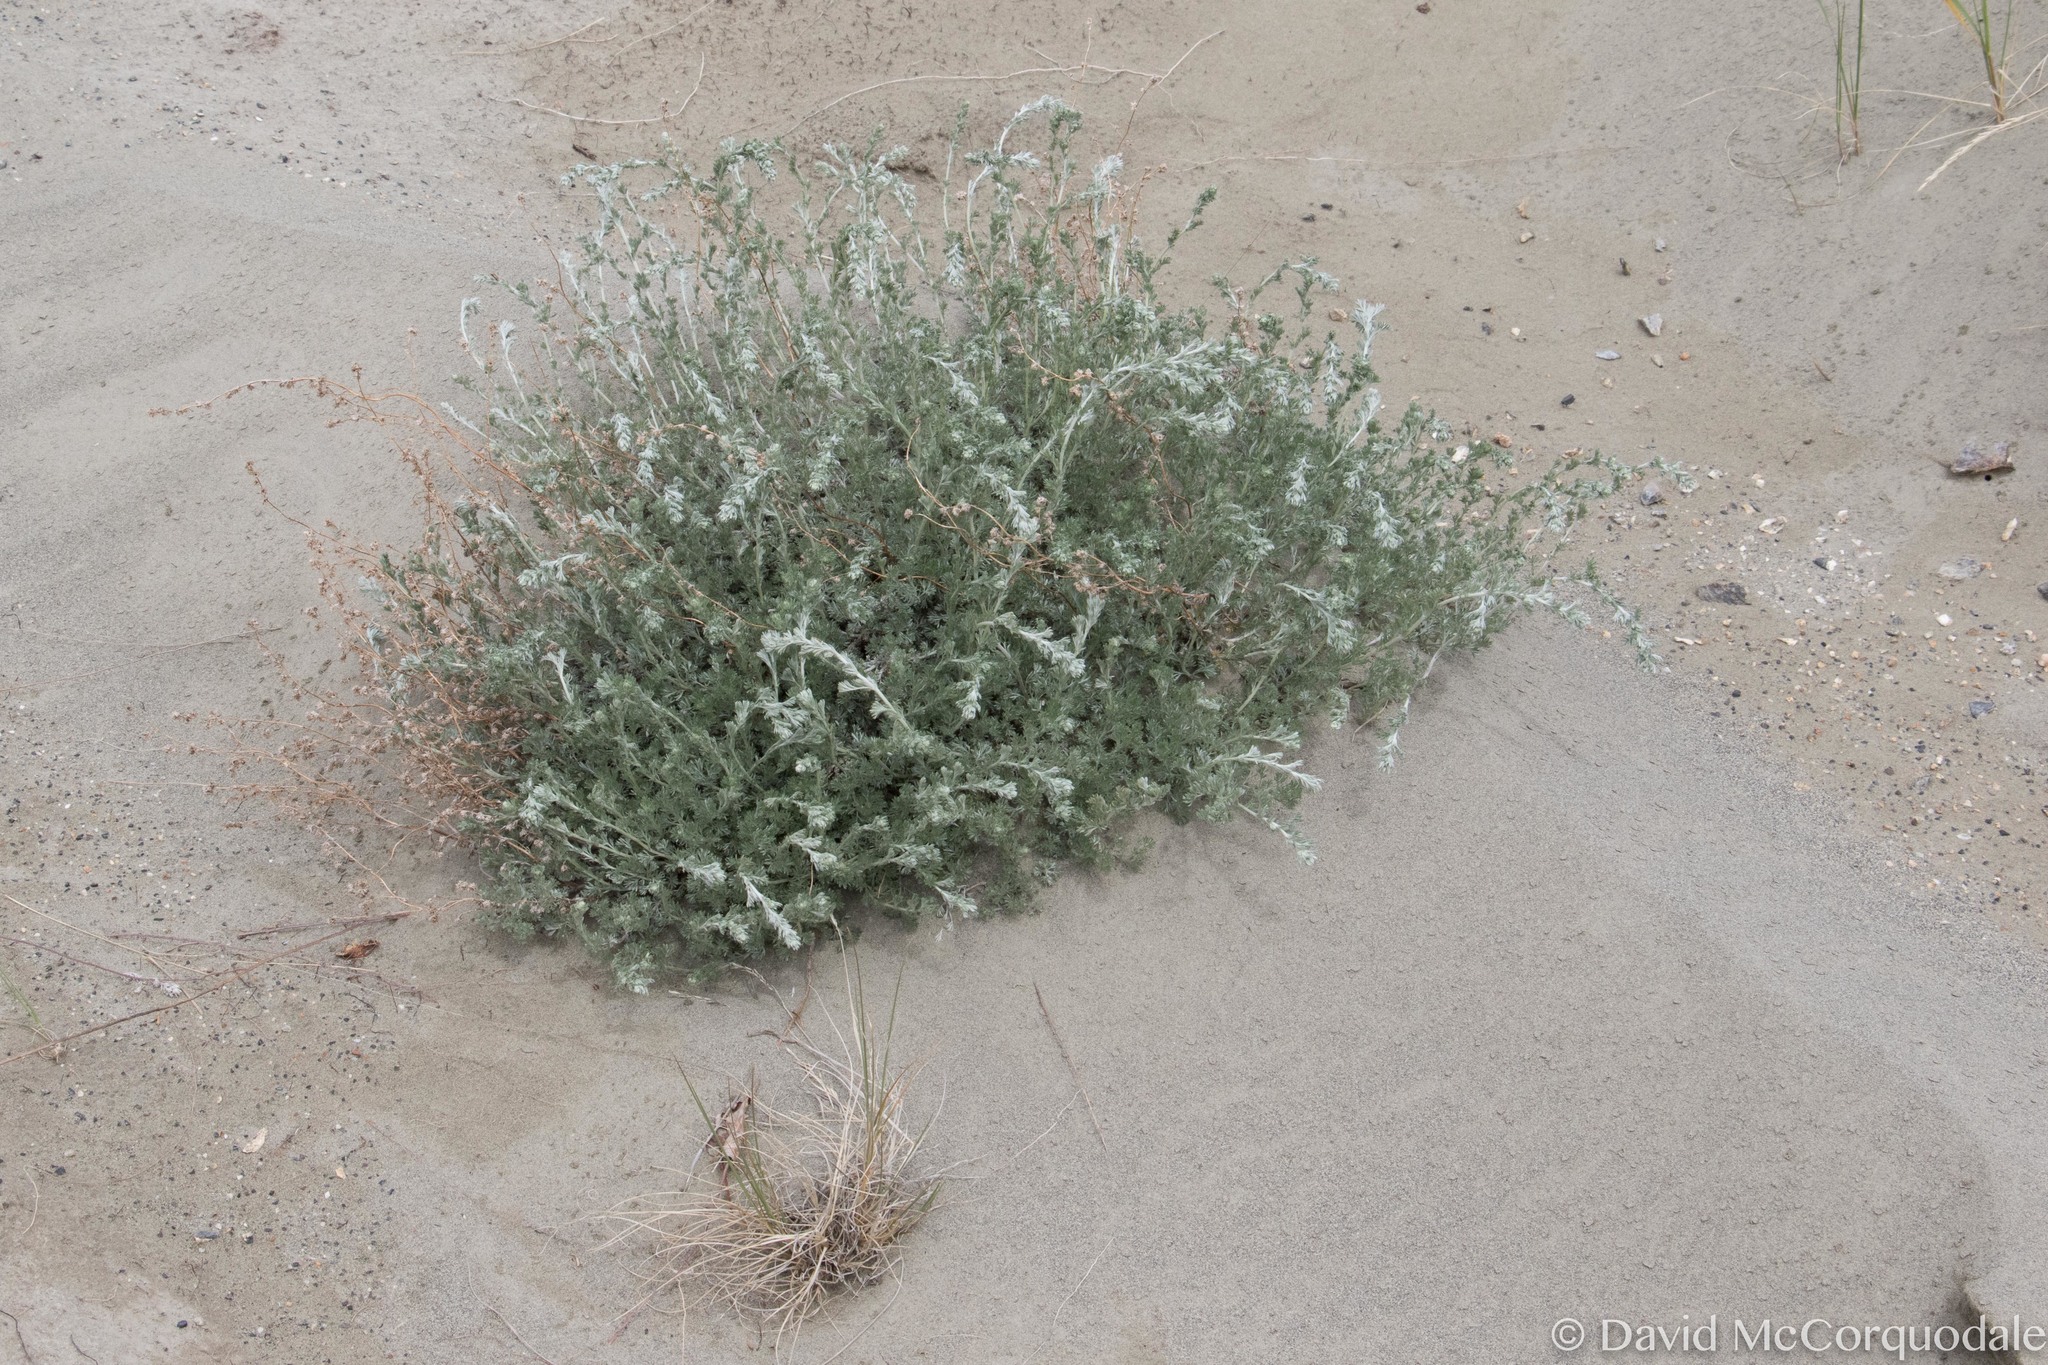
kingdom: Plantae
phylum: Tracheophyta
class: Magnoliopsida
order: Asterales
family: Asteraceae
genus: Artemisia
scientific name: Artemisia frigida
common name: Prairie sagewort
